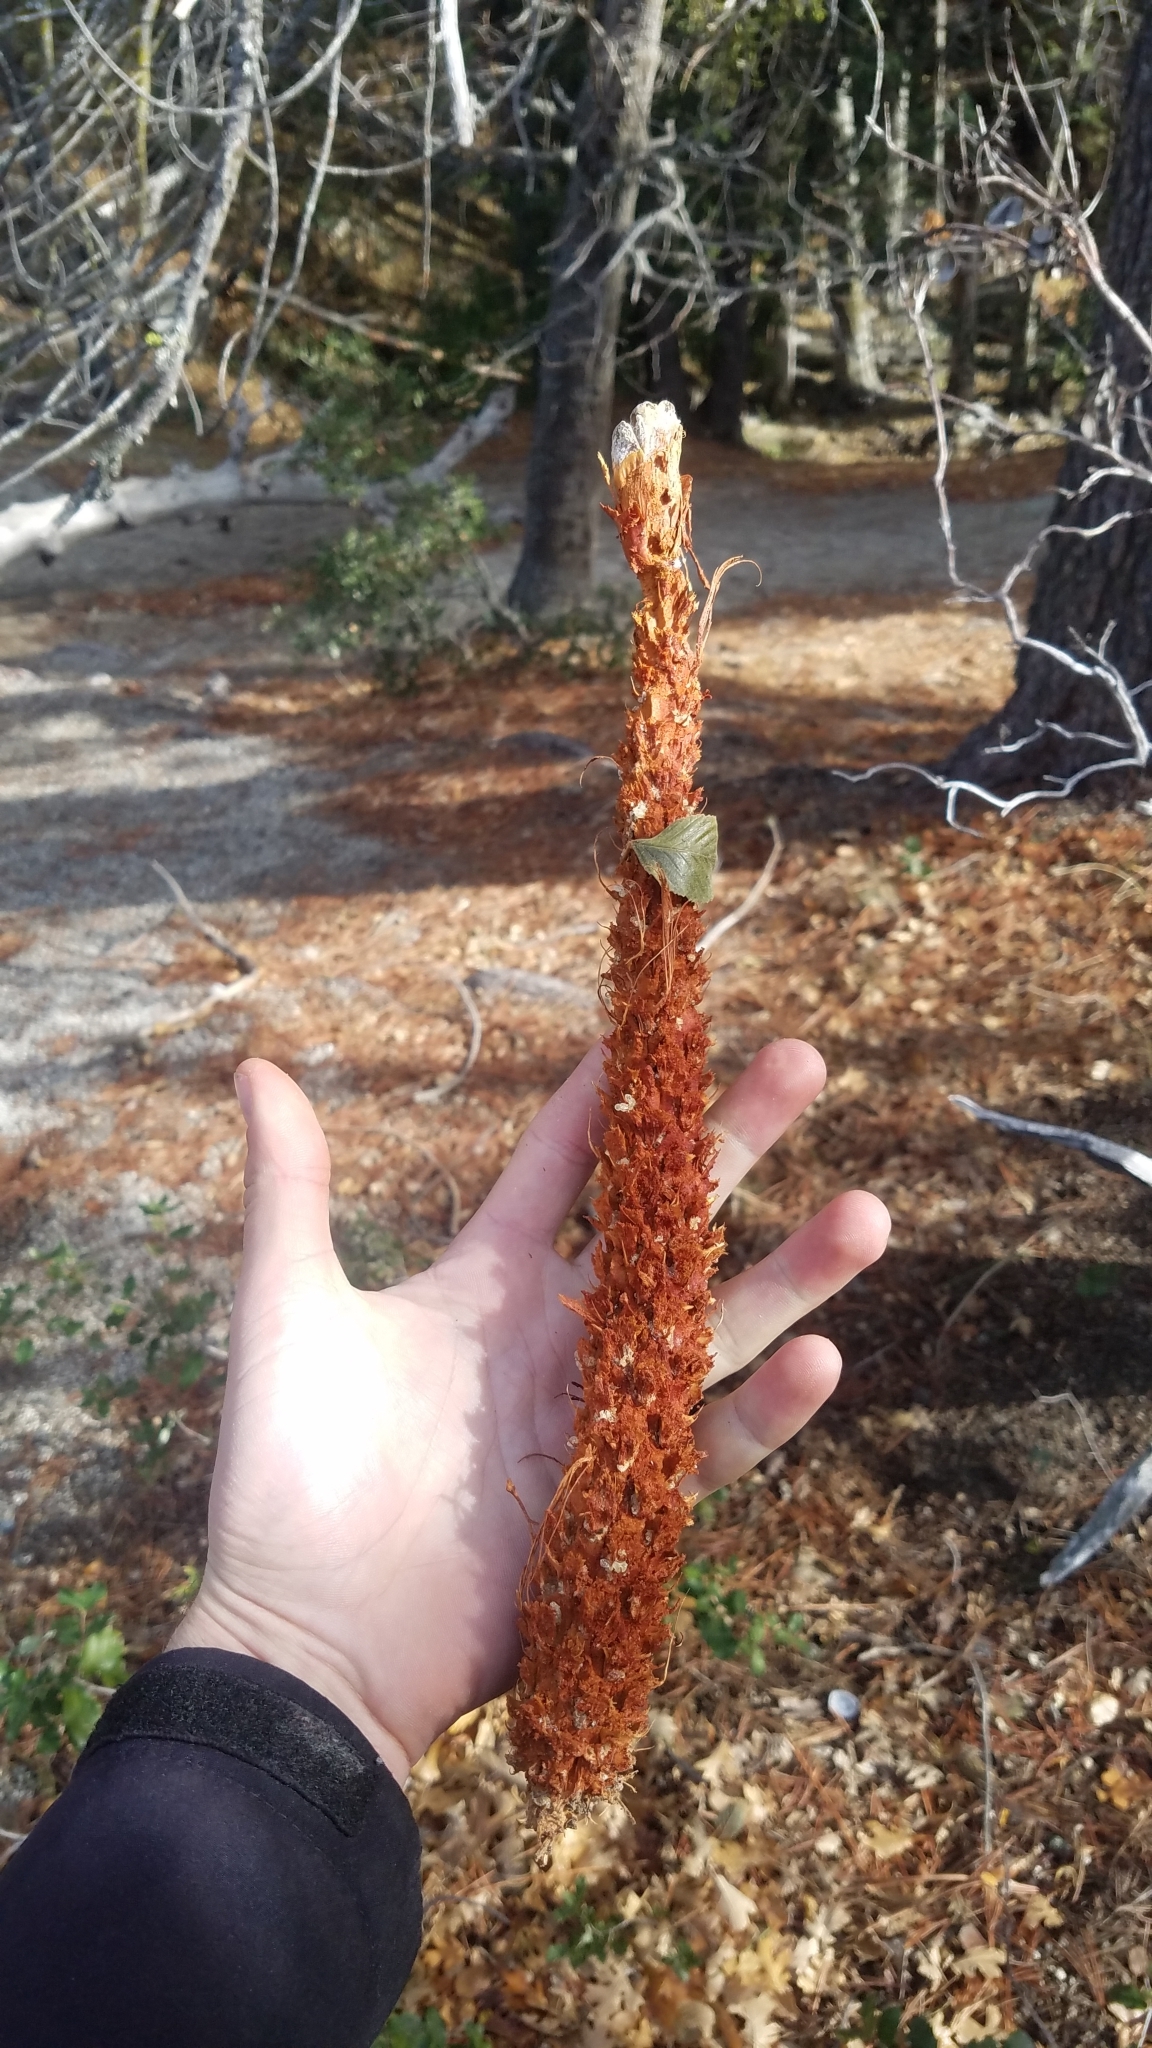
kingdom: Plantae
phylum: Tracheophyta
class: Pinopsida
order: Pinales
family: Pinaceae
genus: Pinus
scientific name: Pinus lambertiana
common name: Sugar pine
